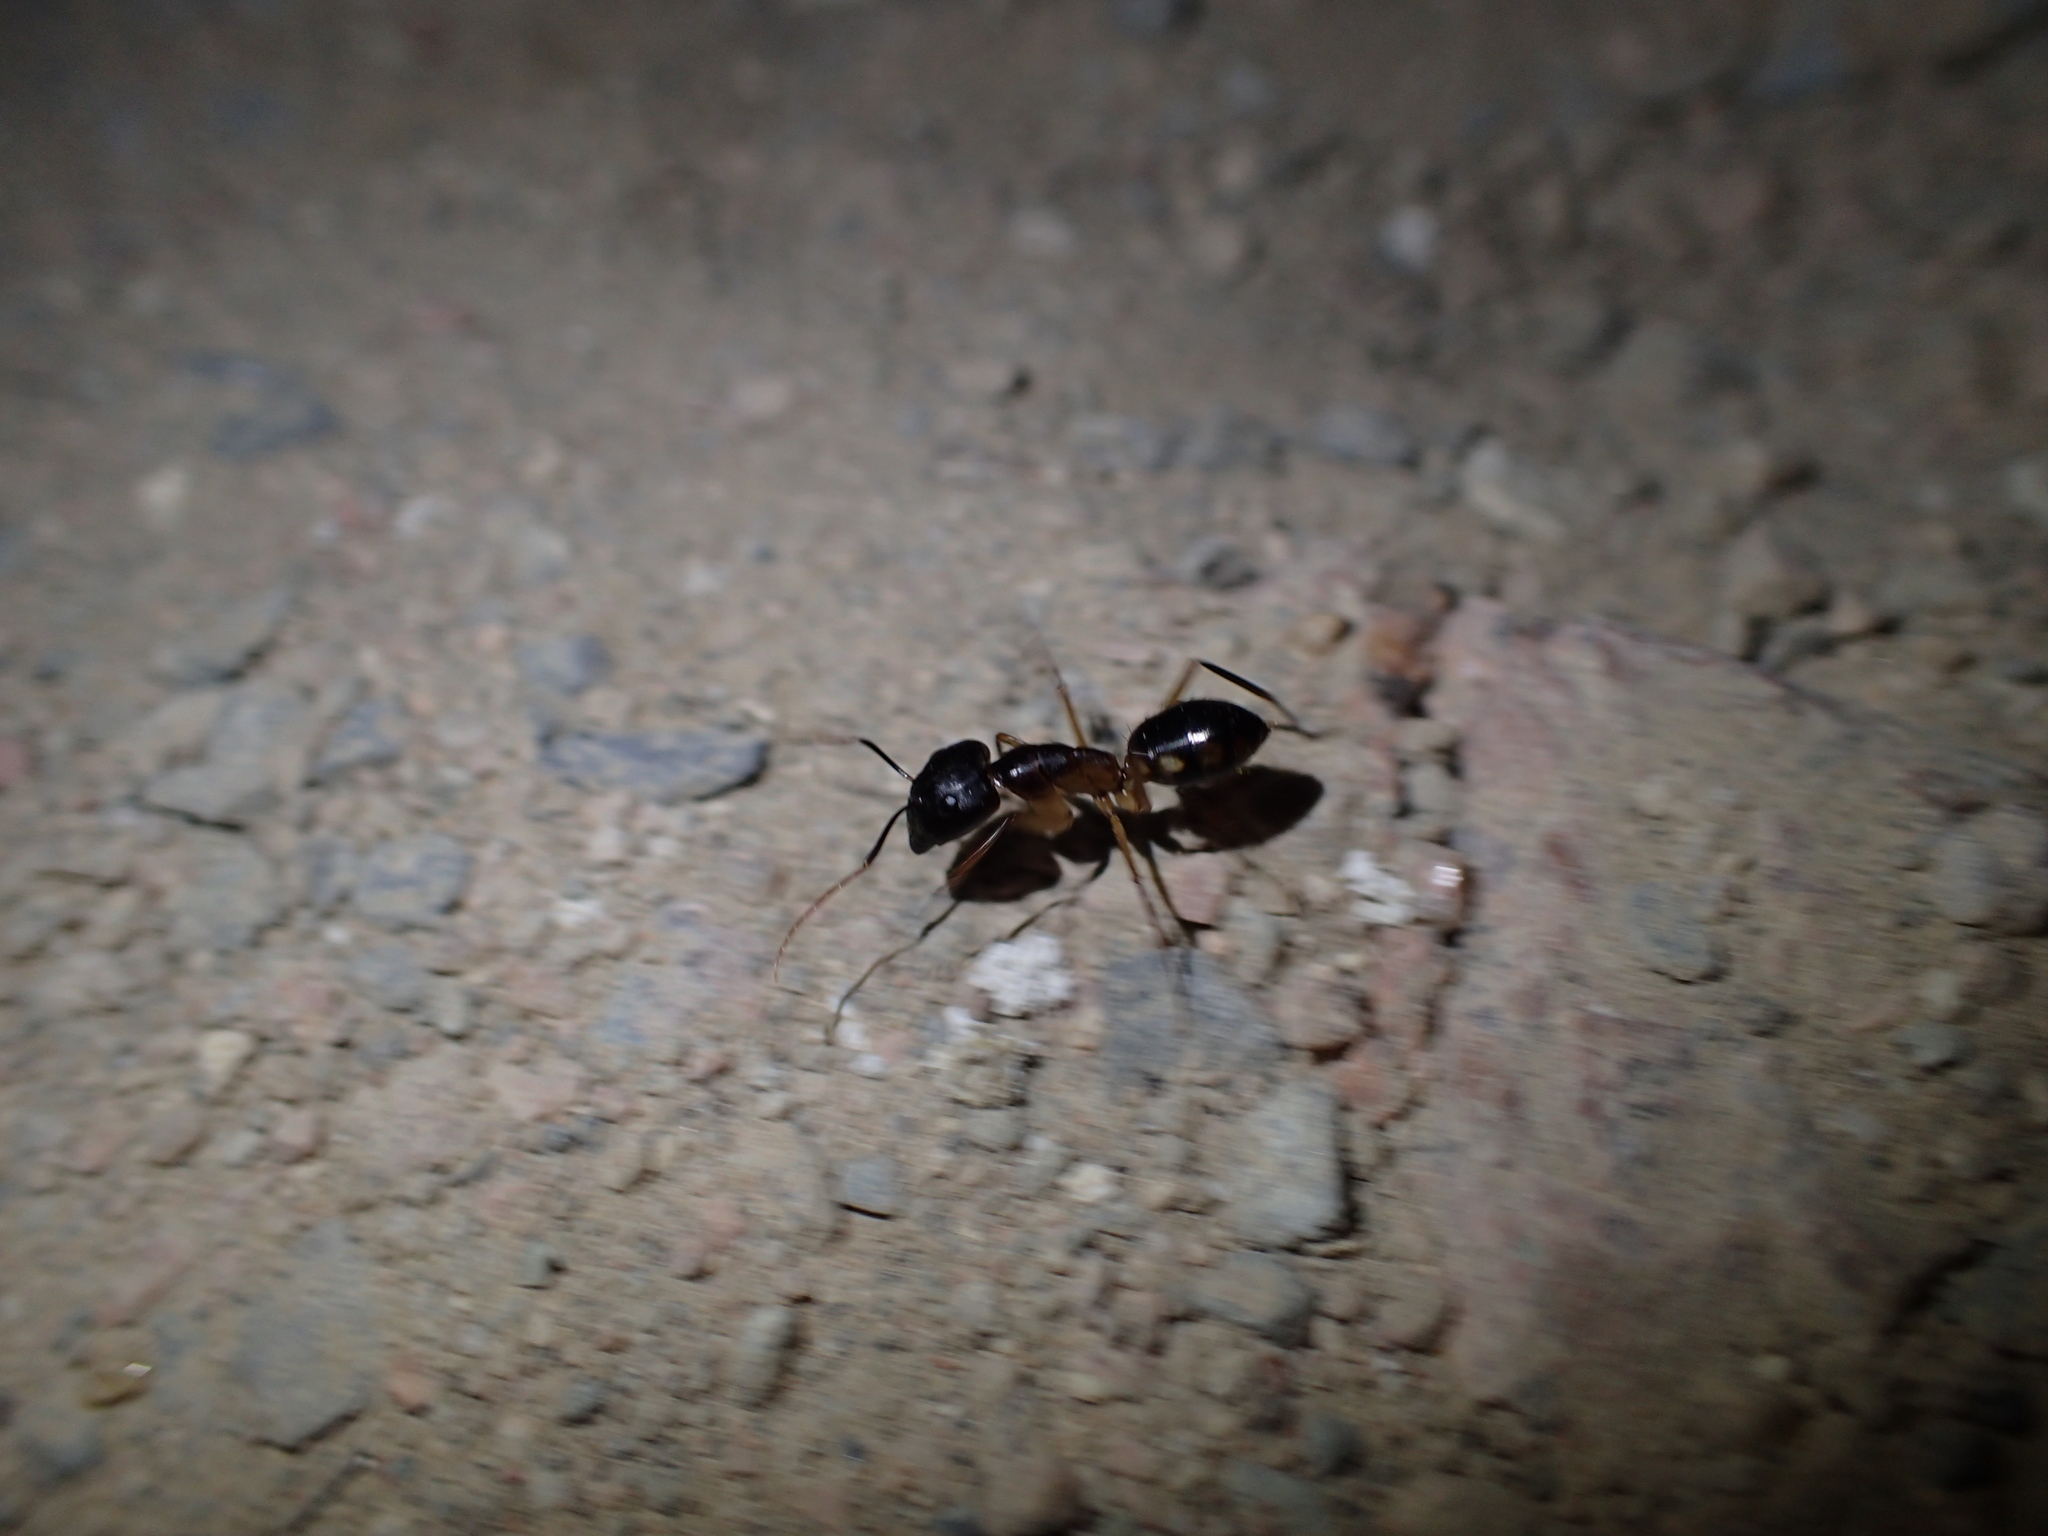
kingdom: Animalia
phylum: Arthropoda
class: Insecta
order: Hymenoptera
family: Formicidae
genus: Camponotus
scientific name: Camponotus aegyptiacus
